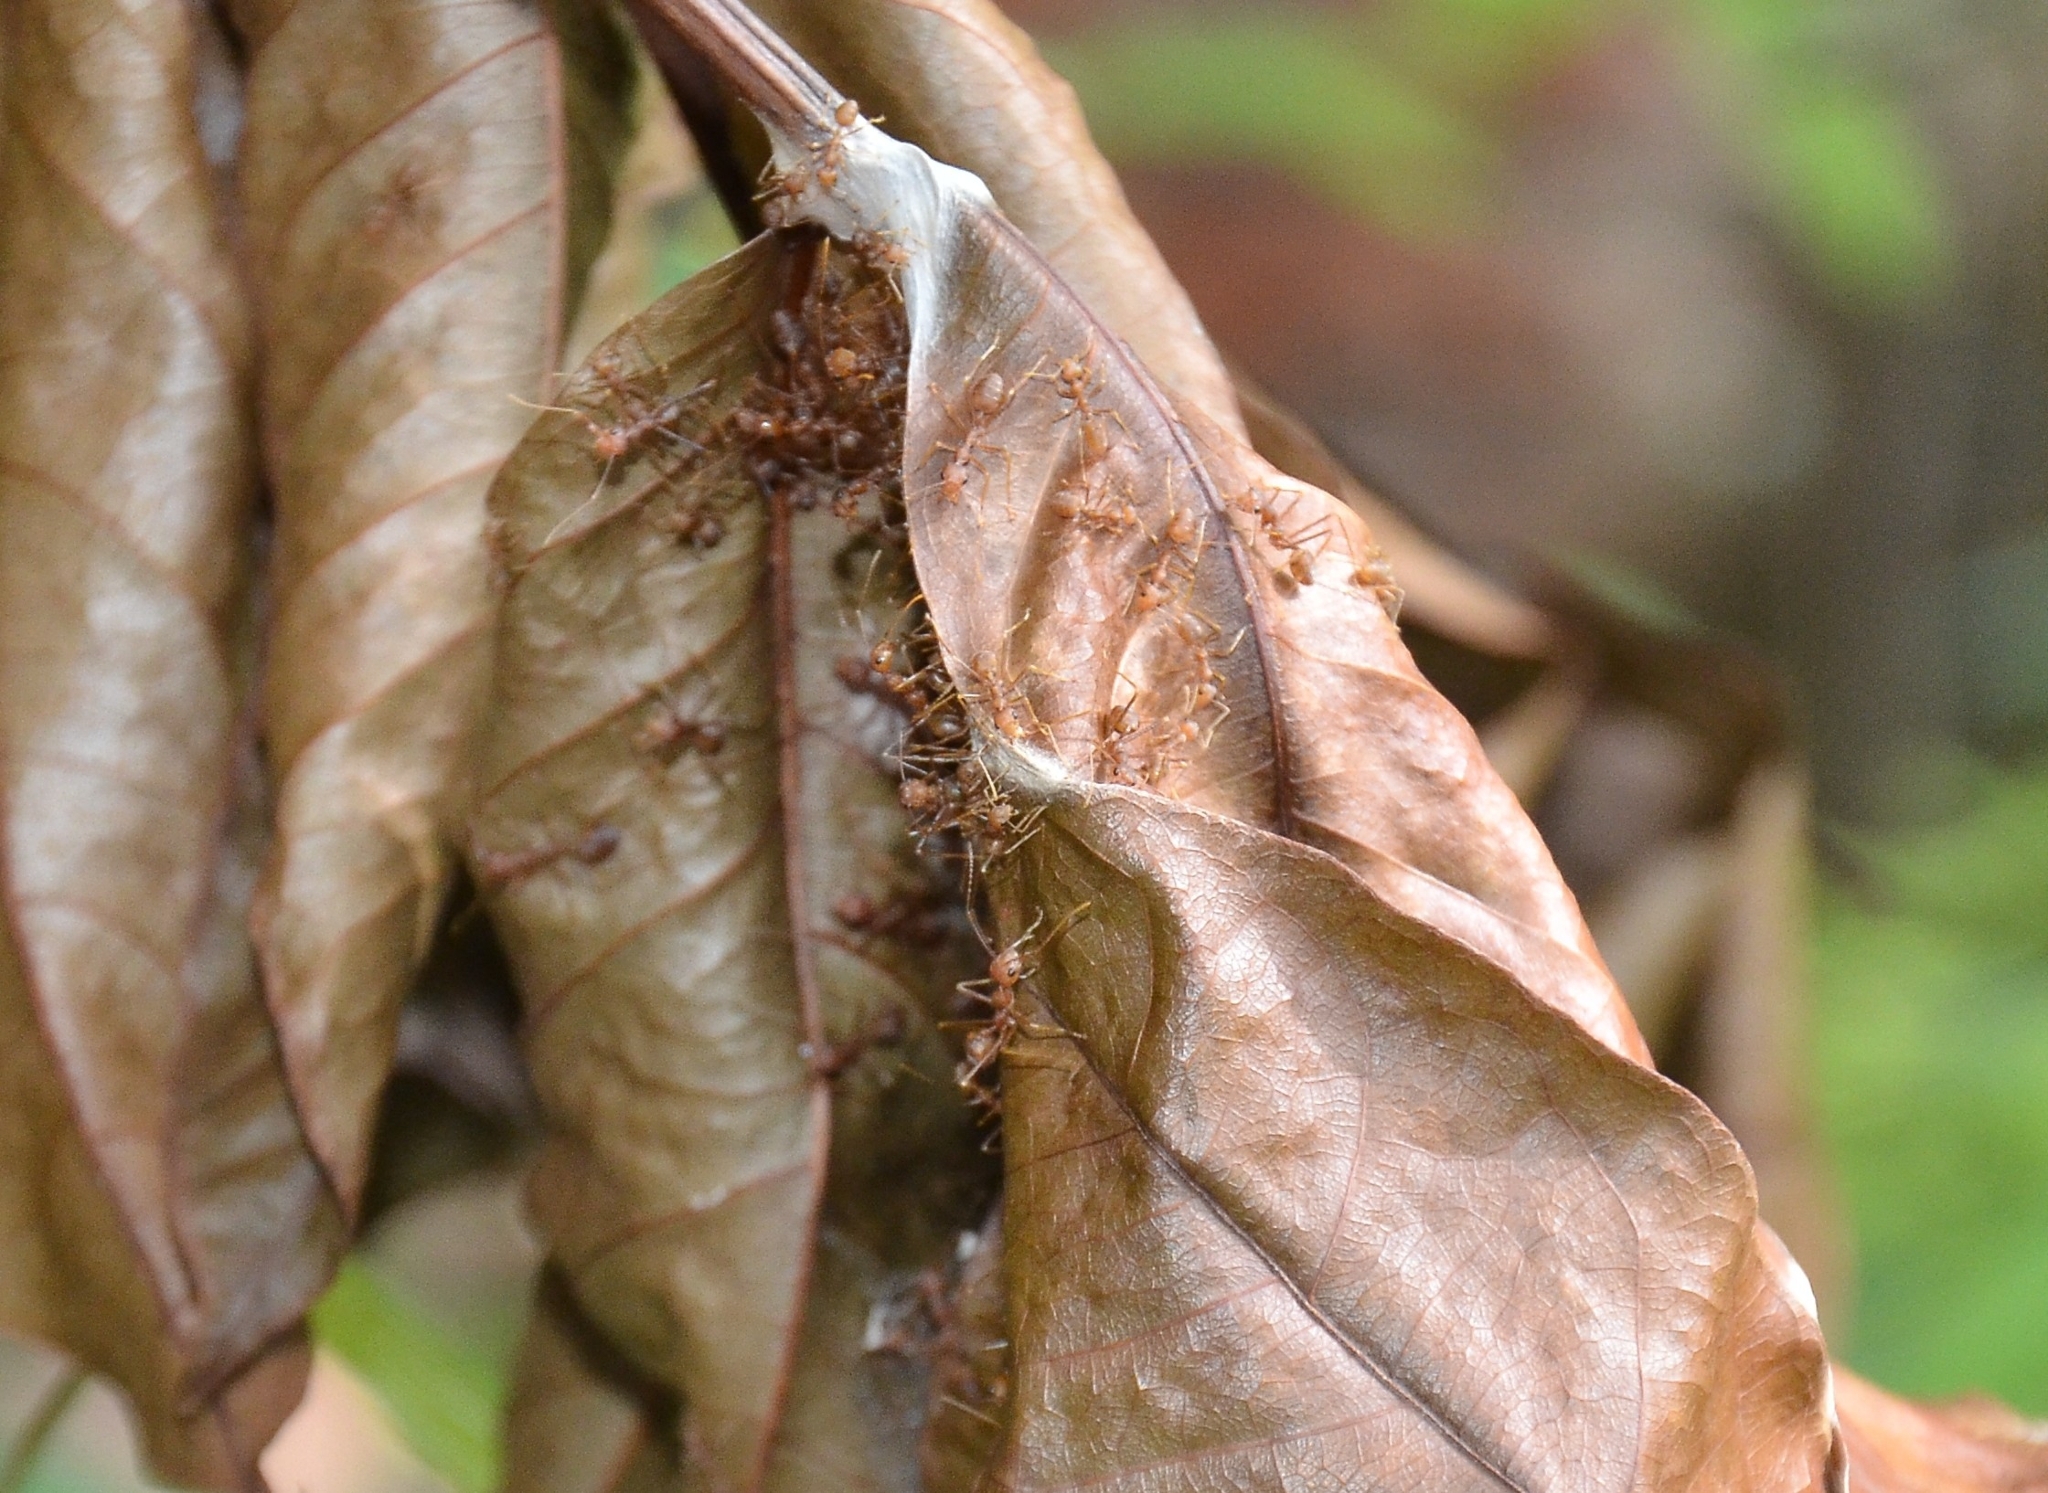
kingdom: Animalia
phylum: Arthropoda
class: Insecta
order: Hymenoptera
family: Formicidae
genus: Oecophylla
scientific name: Oecophylla smaragdina
